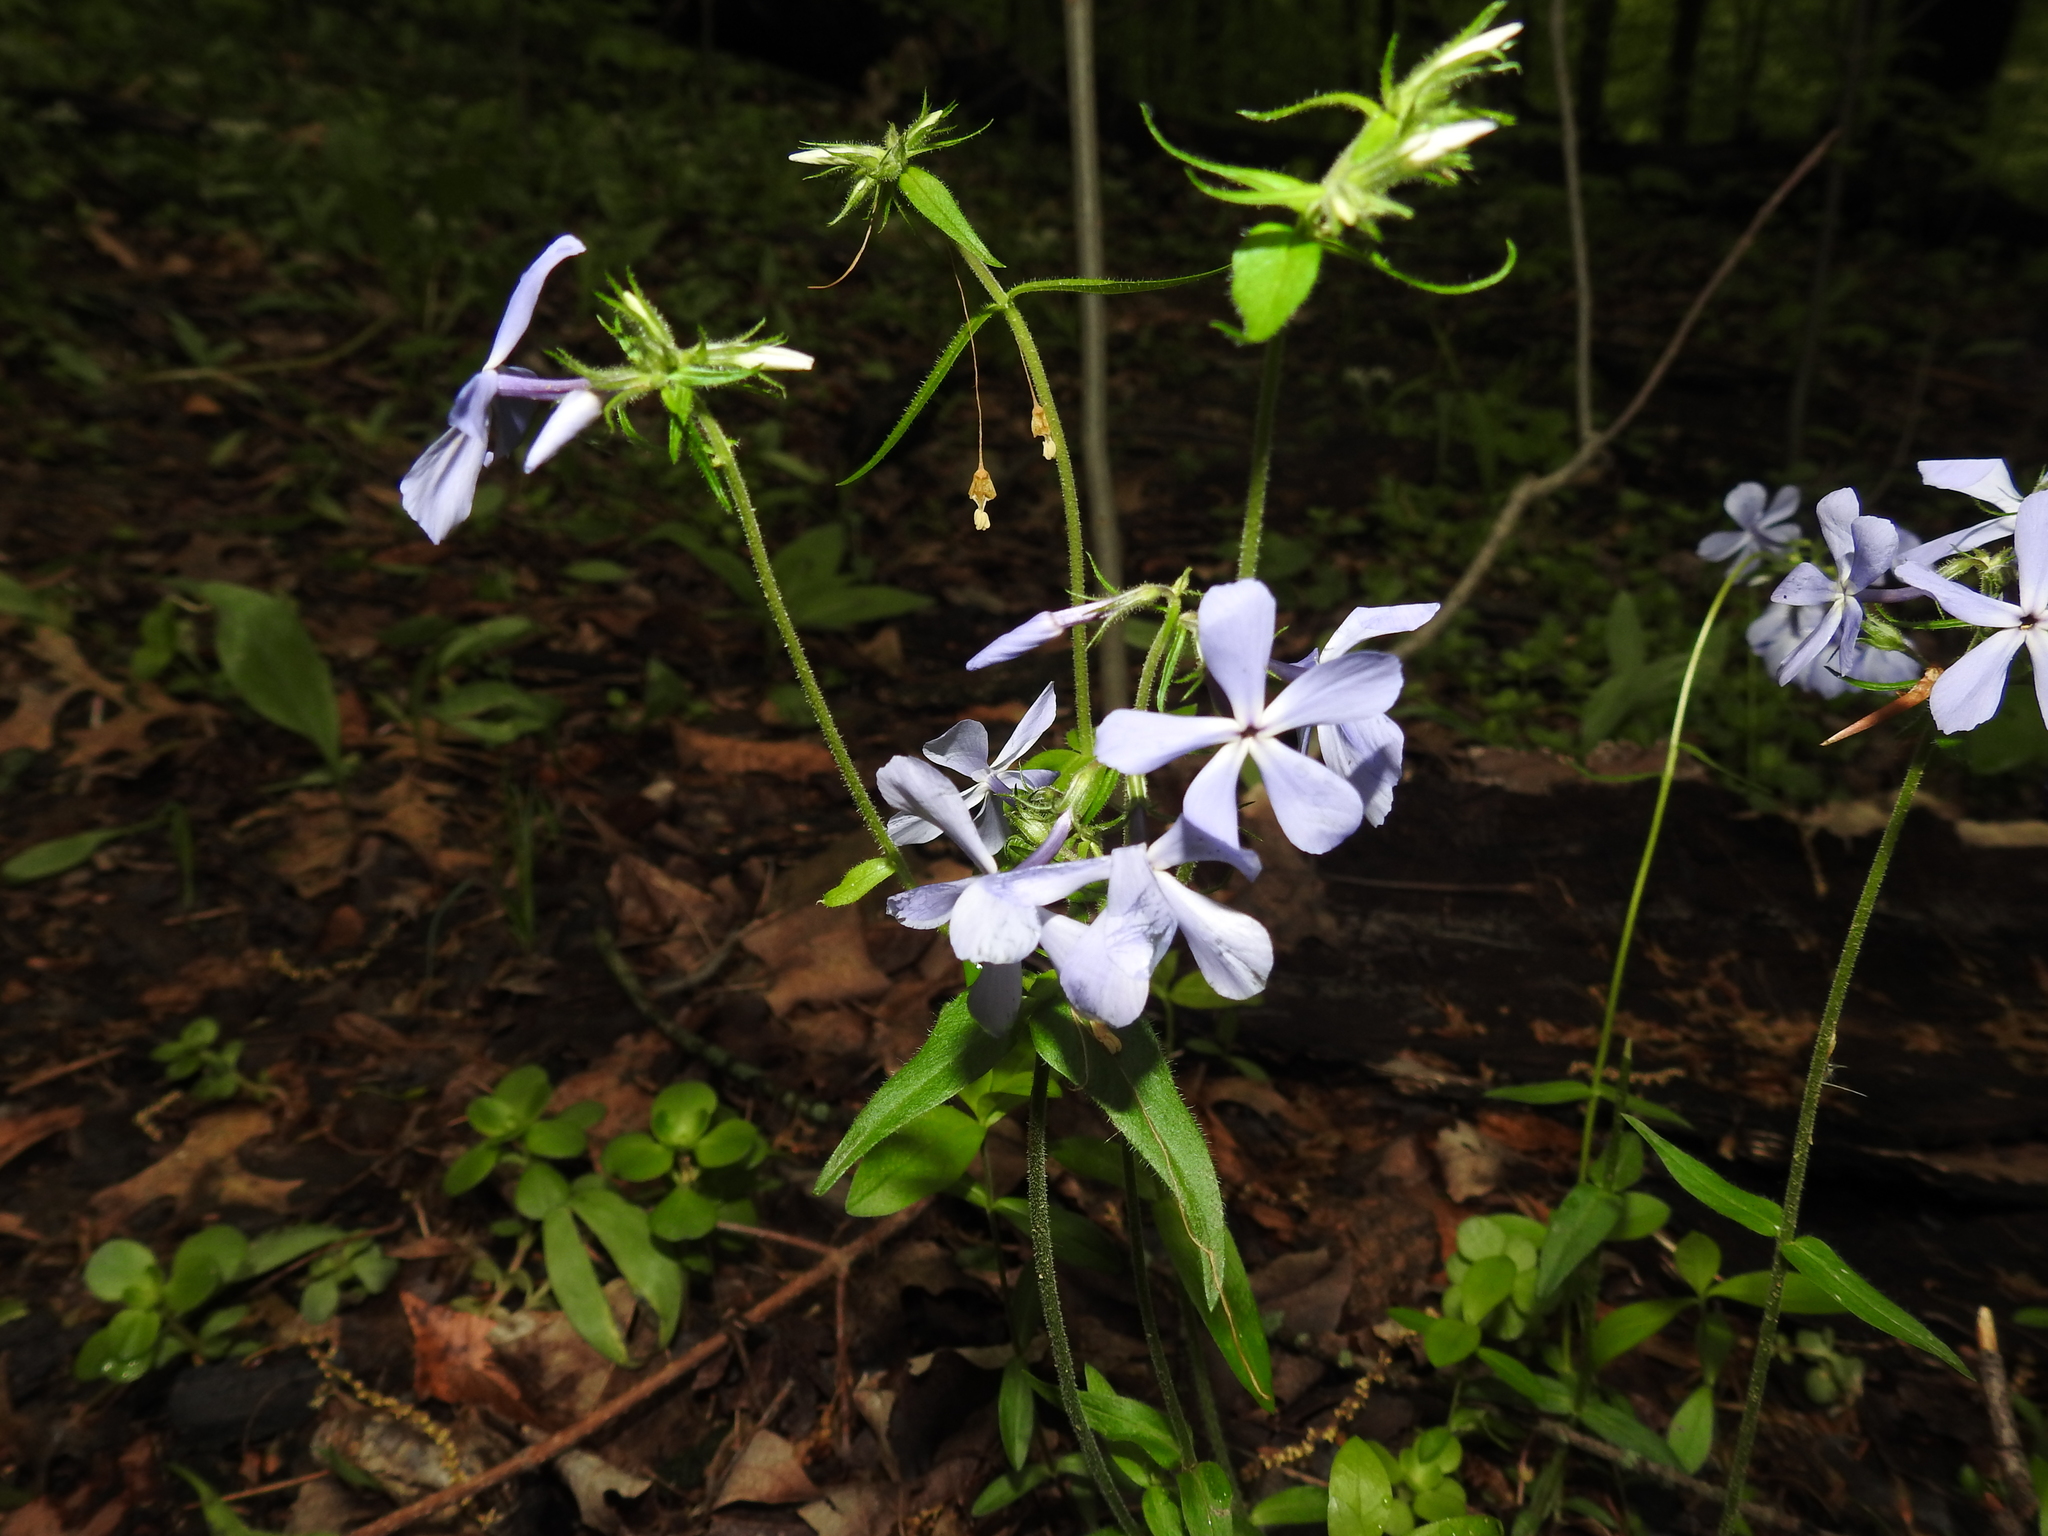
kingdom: Plantae
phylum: Tracheophyta
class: Magnoliopsida
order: Ericales
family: Polemoniaceae
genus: Phlox
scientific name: Phlox divaricata
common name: Blue phlox
